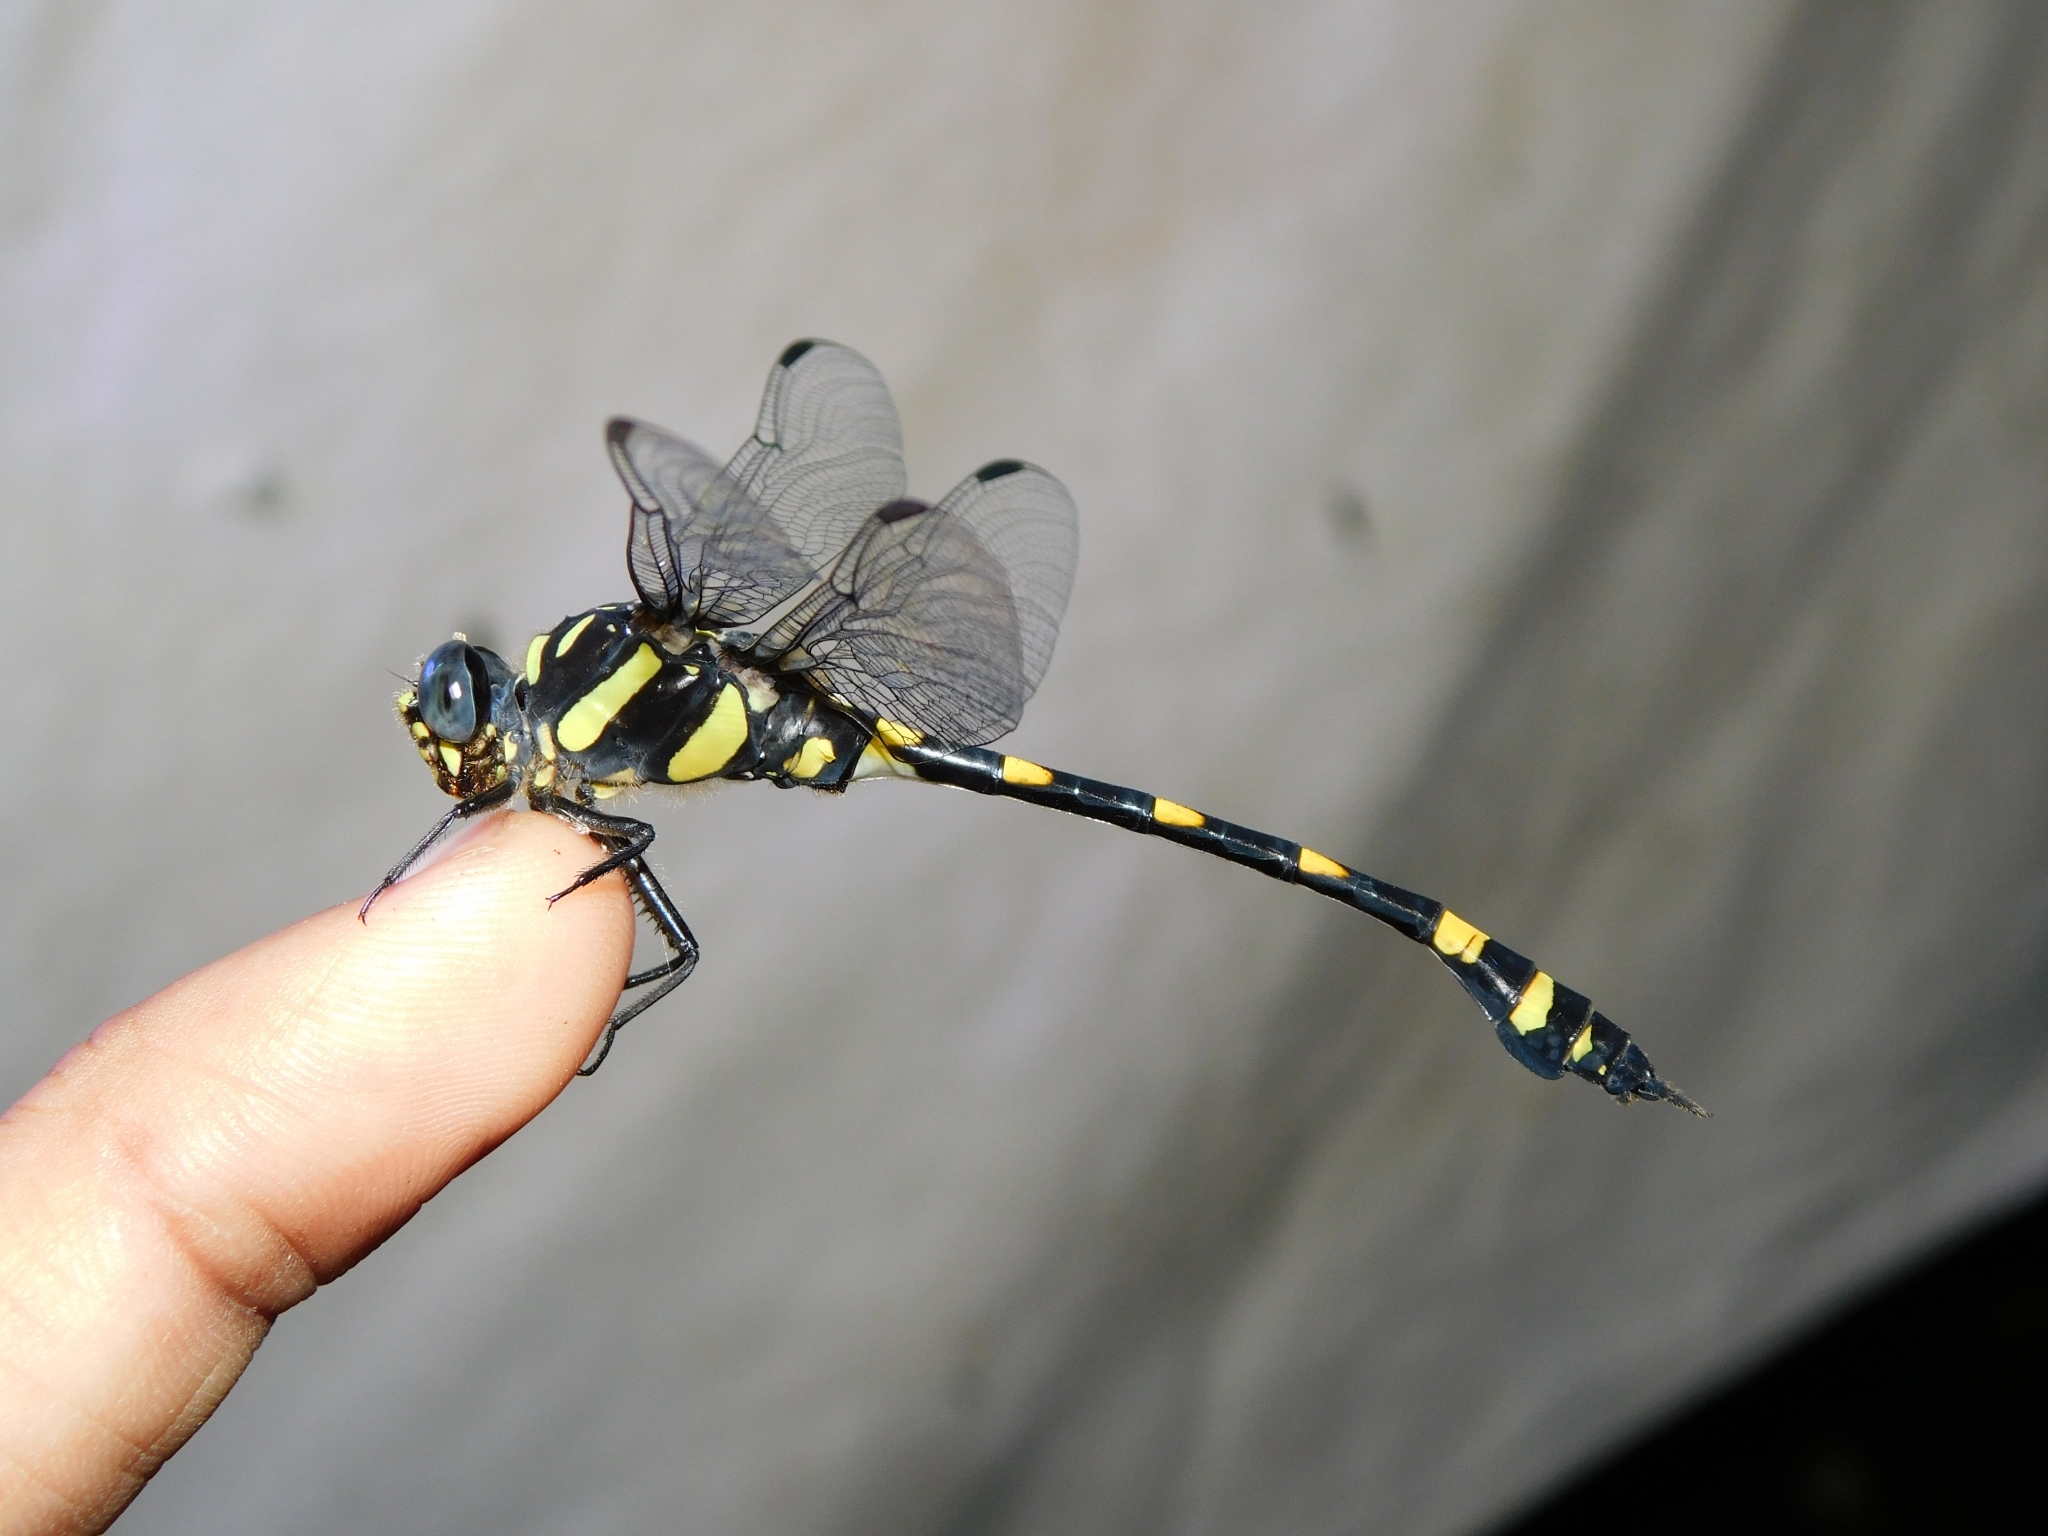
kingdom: Animalia
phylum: Arthropoda
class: Insecta
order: Odonata
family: Gomphidae
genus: Ictinogomphus
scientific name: Ictinogomphus rapax
